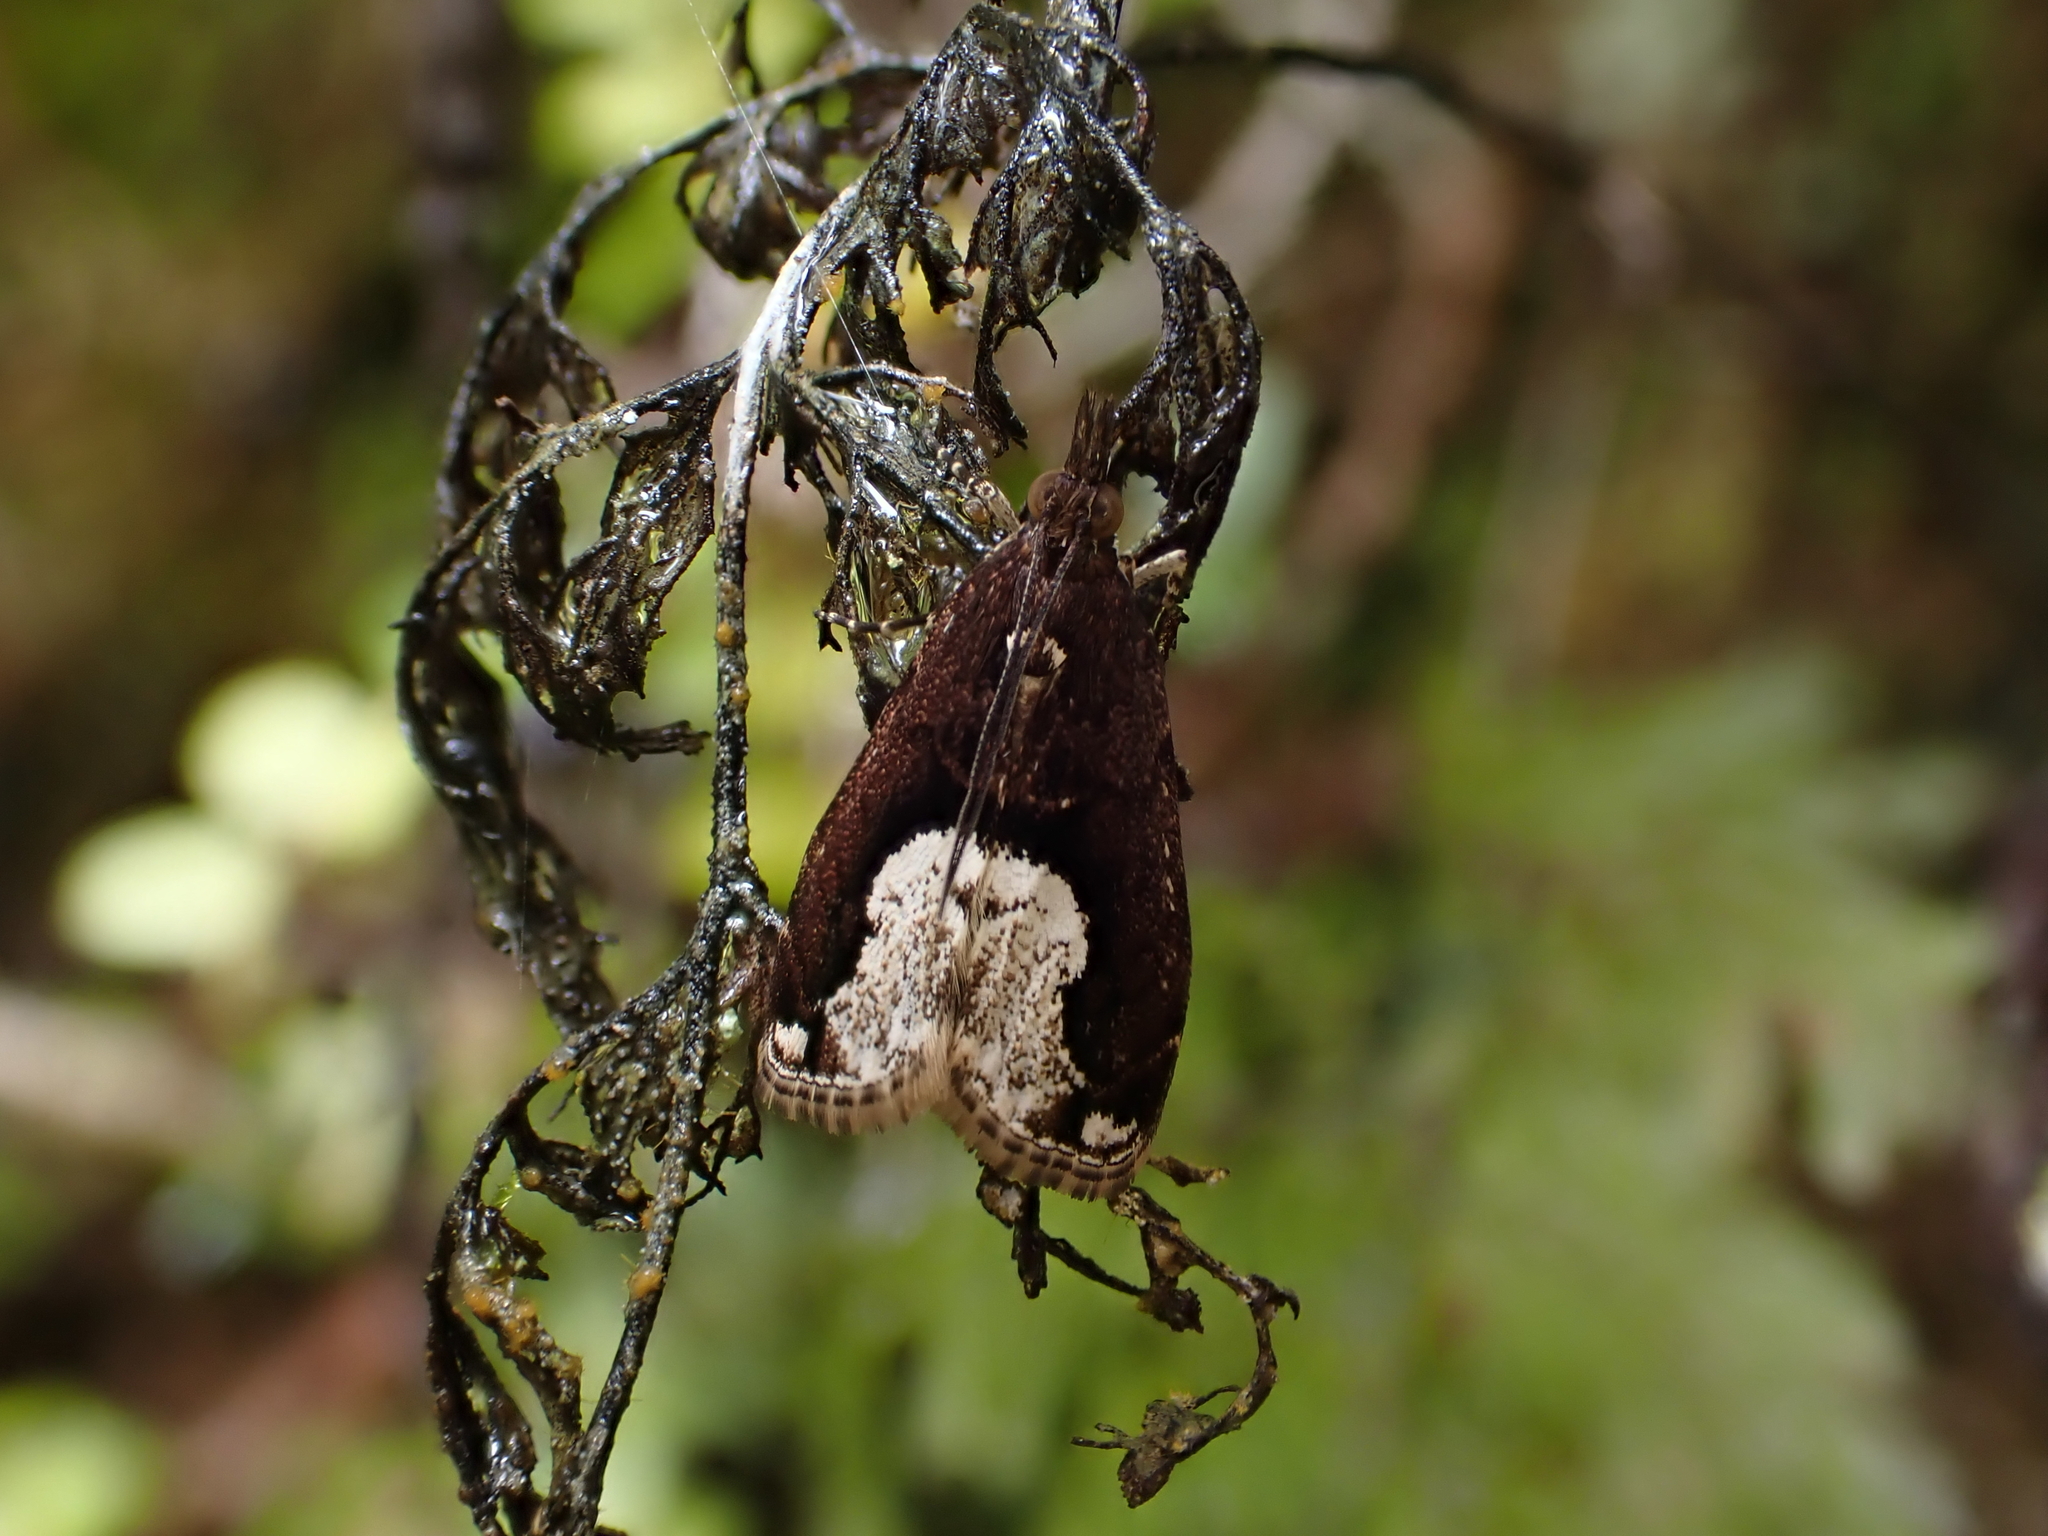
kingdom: Animalia
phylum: Arthropoda
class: Insecta
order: Lepidoptera
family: Crambidae
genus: Eudonia
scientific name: Eudonia hemiplaca
